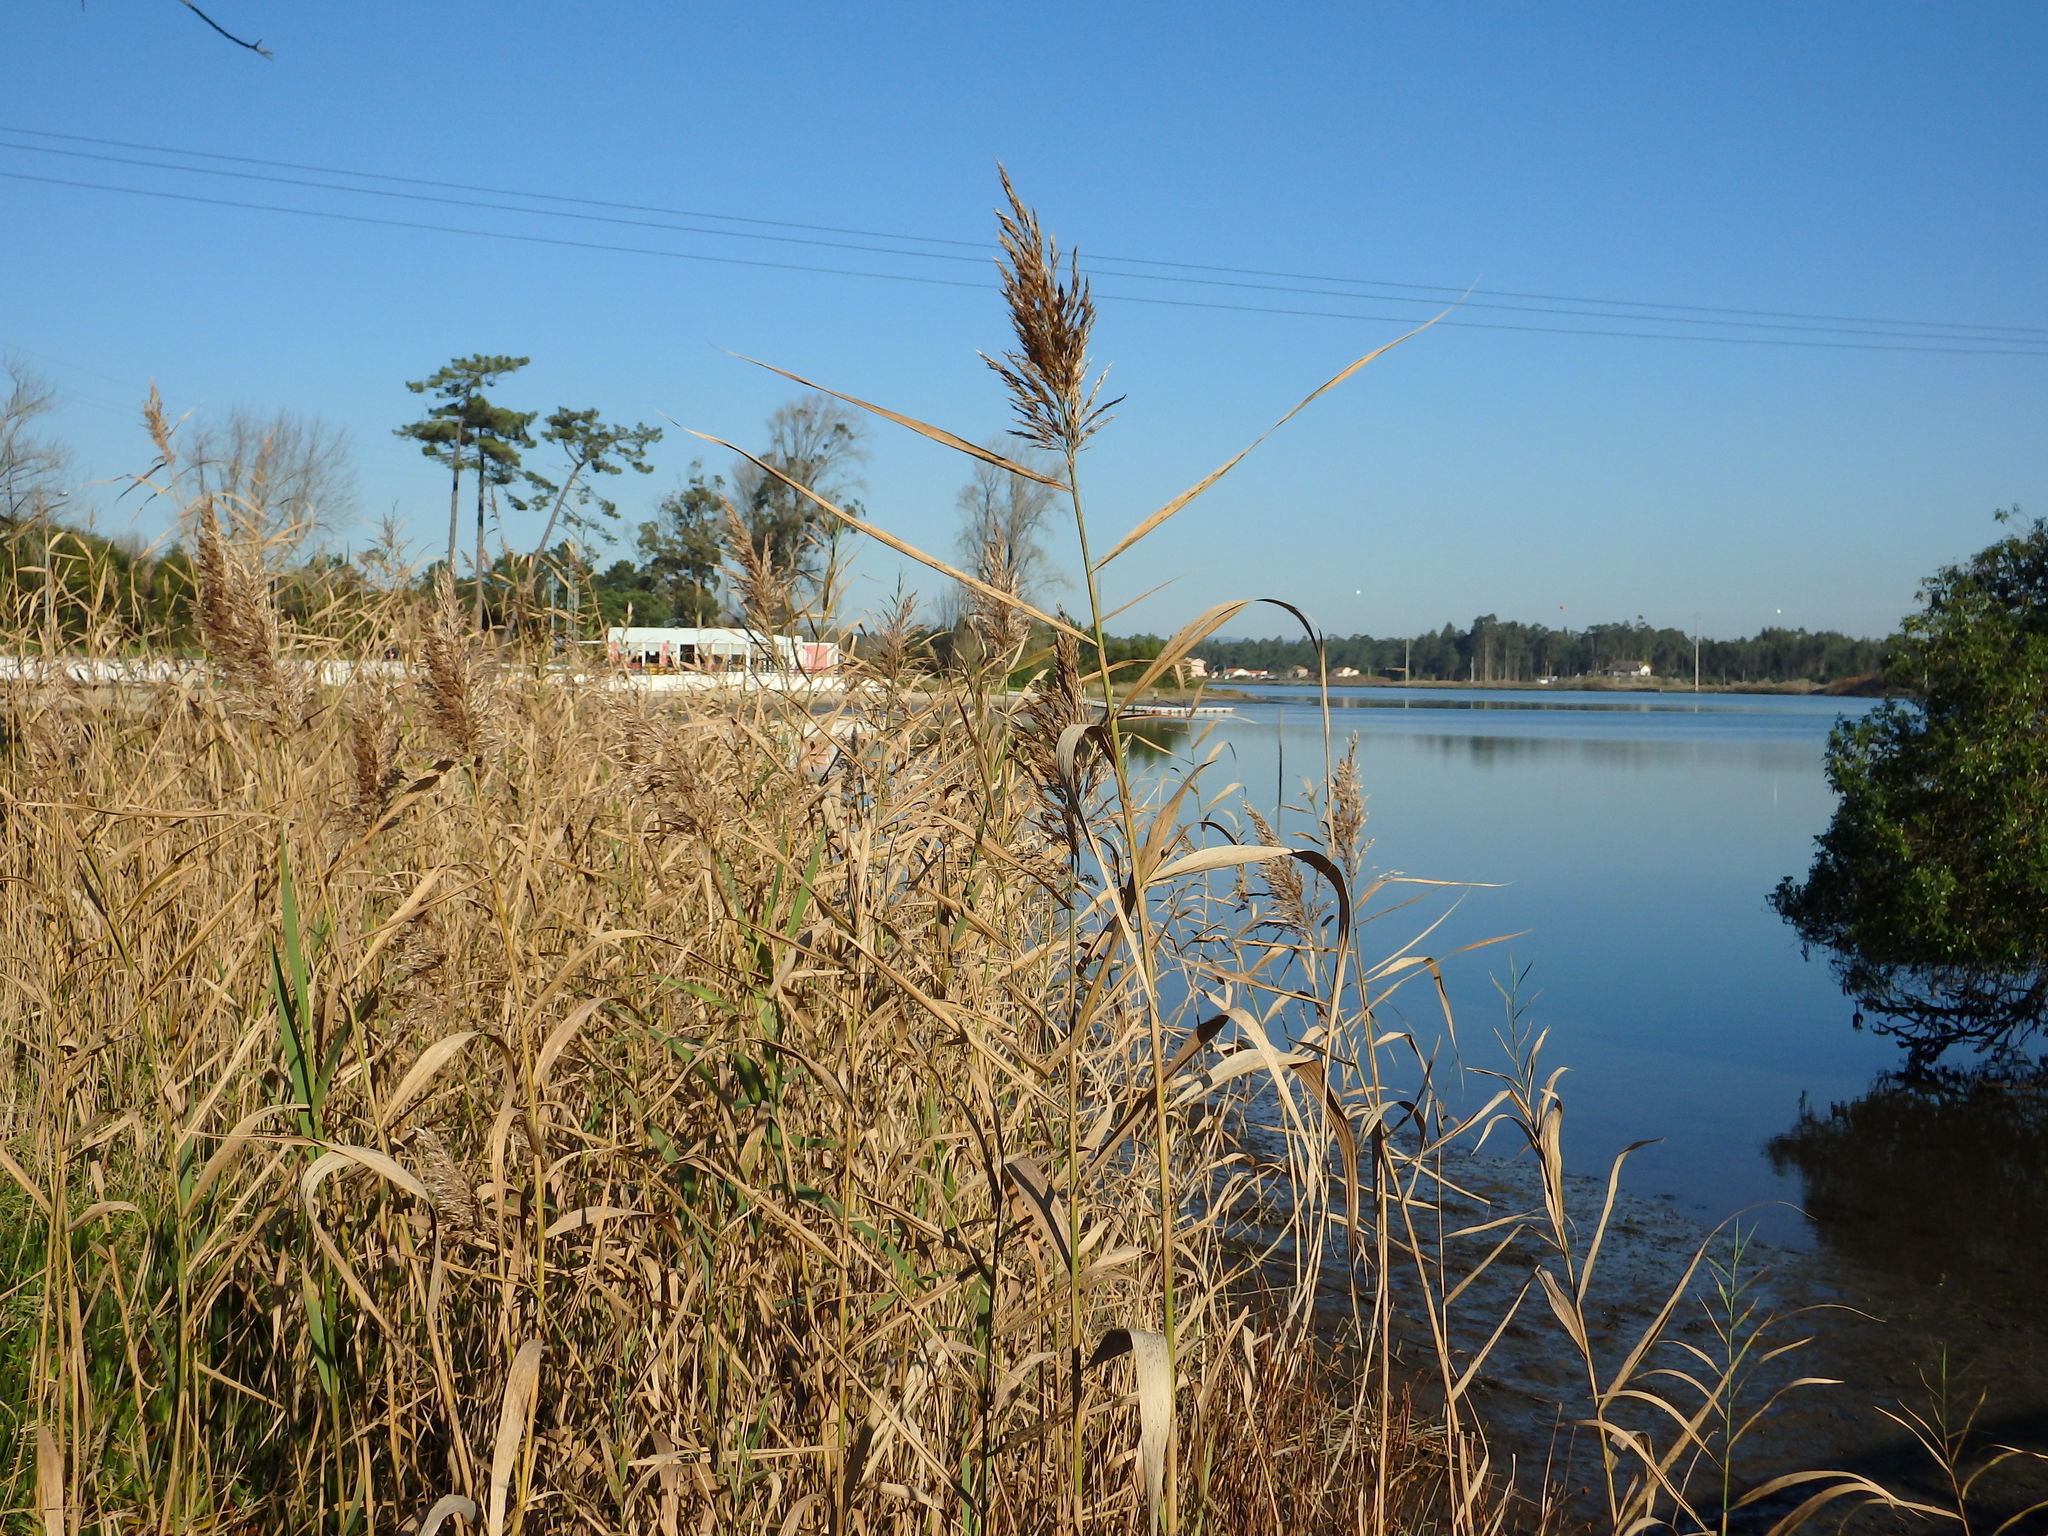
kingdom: Plantae
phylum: Tracheophyta
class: Liliopsida
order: Poales
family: Poaceae
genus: Phragmites
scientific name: Phragmites australis
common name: Common reed
